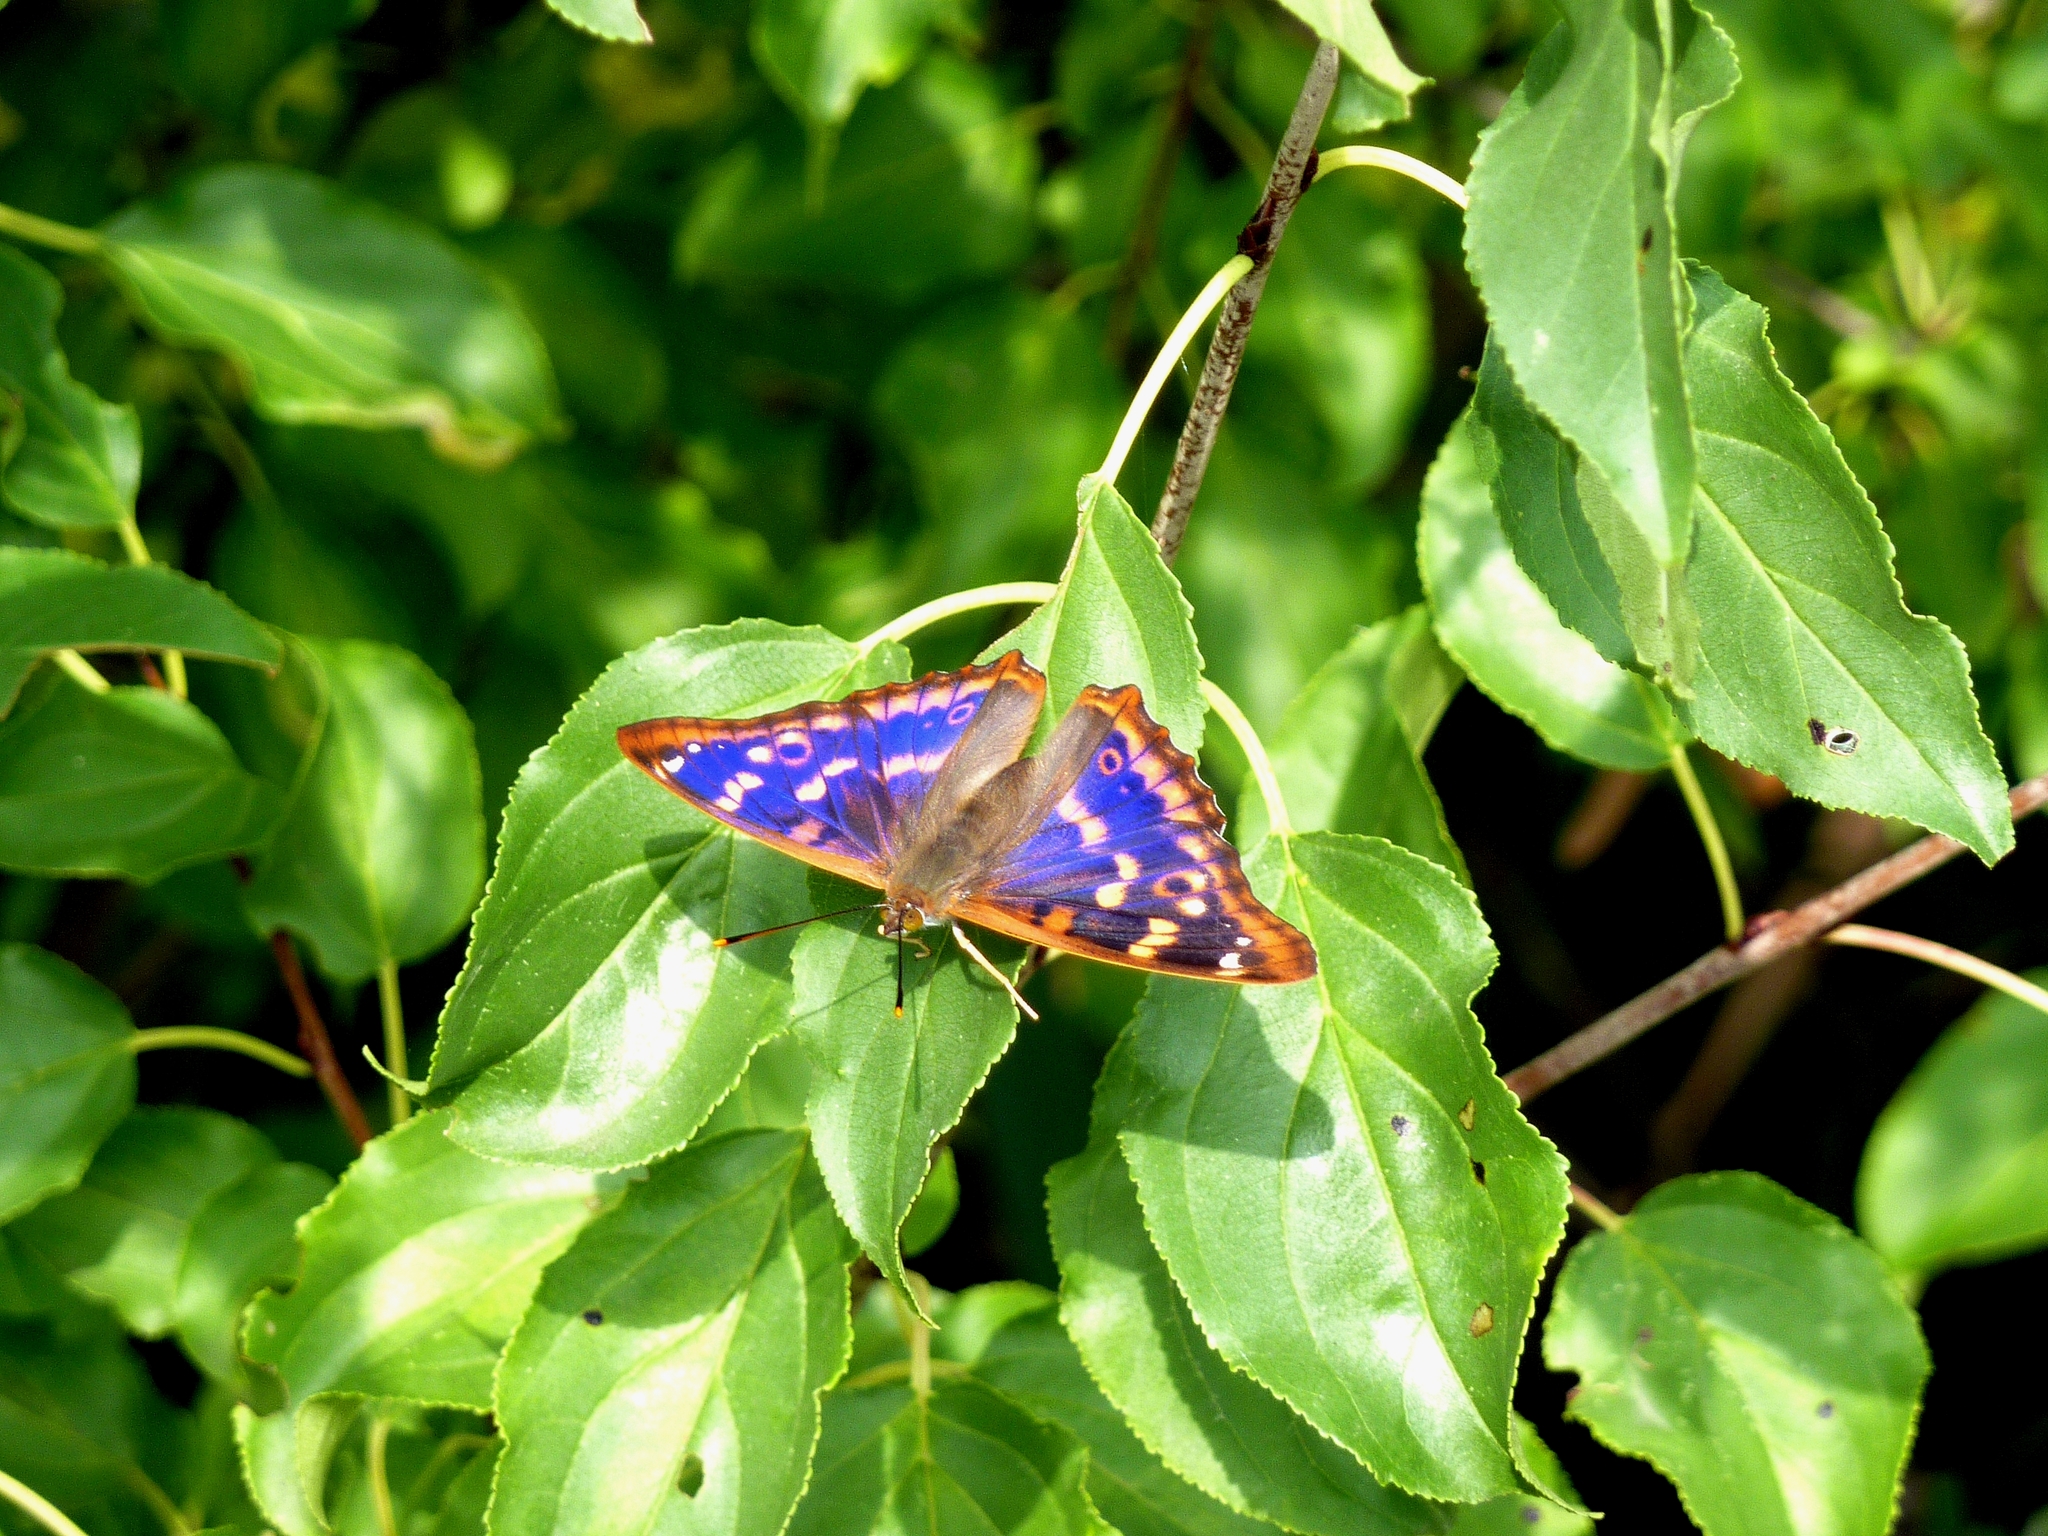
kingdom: Animalia
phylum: Arthropoda
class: Insecta
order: Lepidoptera
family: Nymphalidae
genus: Apatura
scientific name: Apatura ilia
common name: Lesser purple emperor
